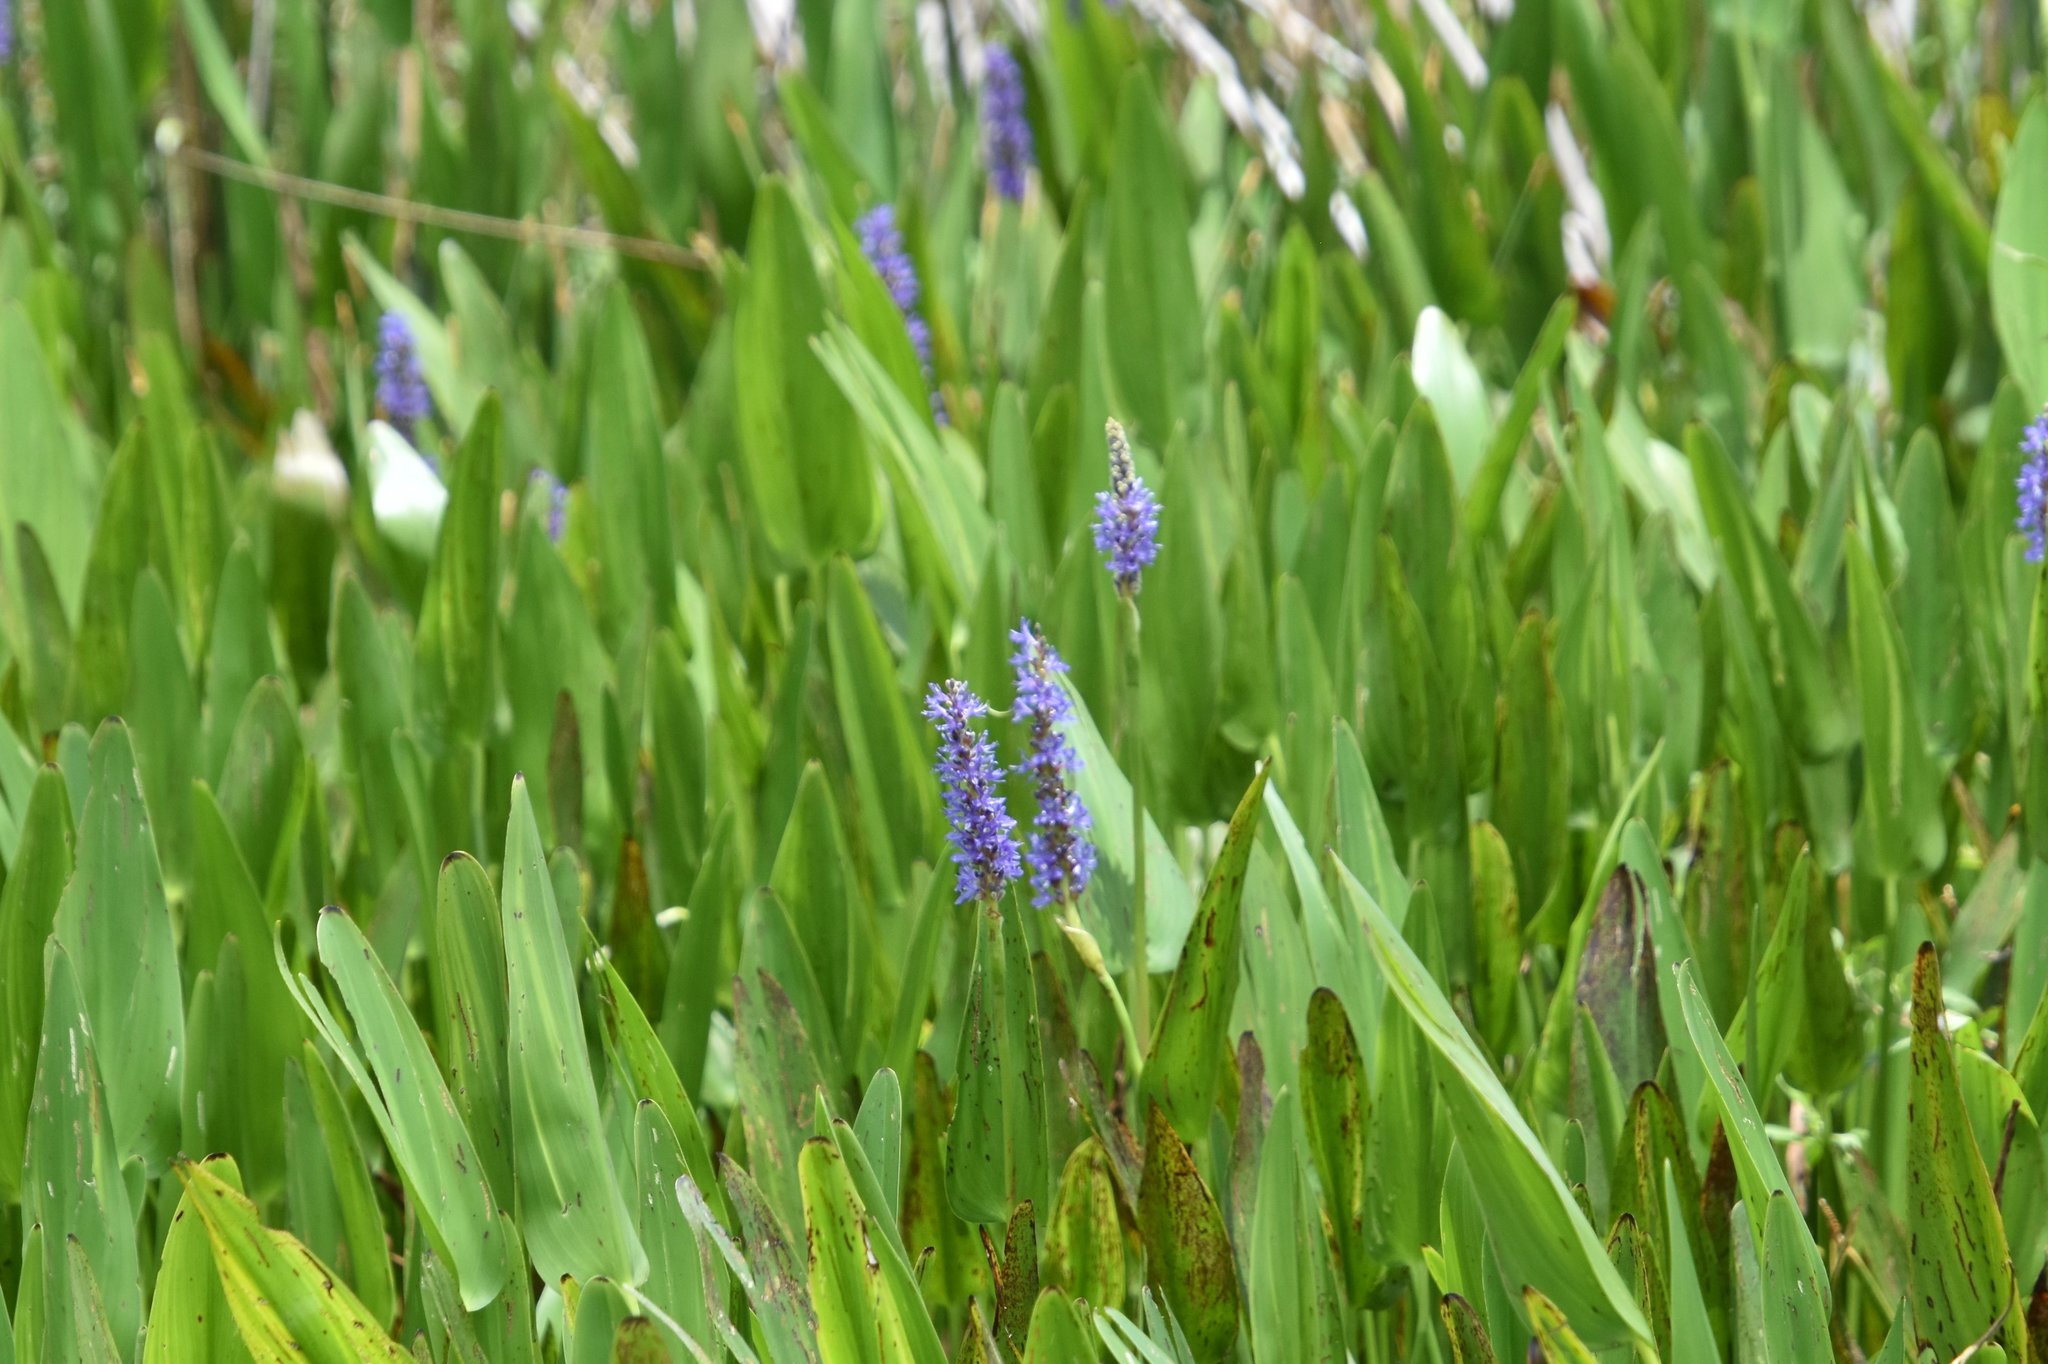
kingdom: Plantae
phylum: Tracheophyta
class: Liliopsida
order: Commelinales
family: Pontederiaceae
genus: Pontederia
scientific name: Pontederia cordata
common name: Pickerelweed
